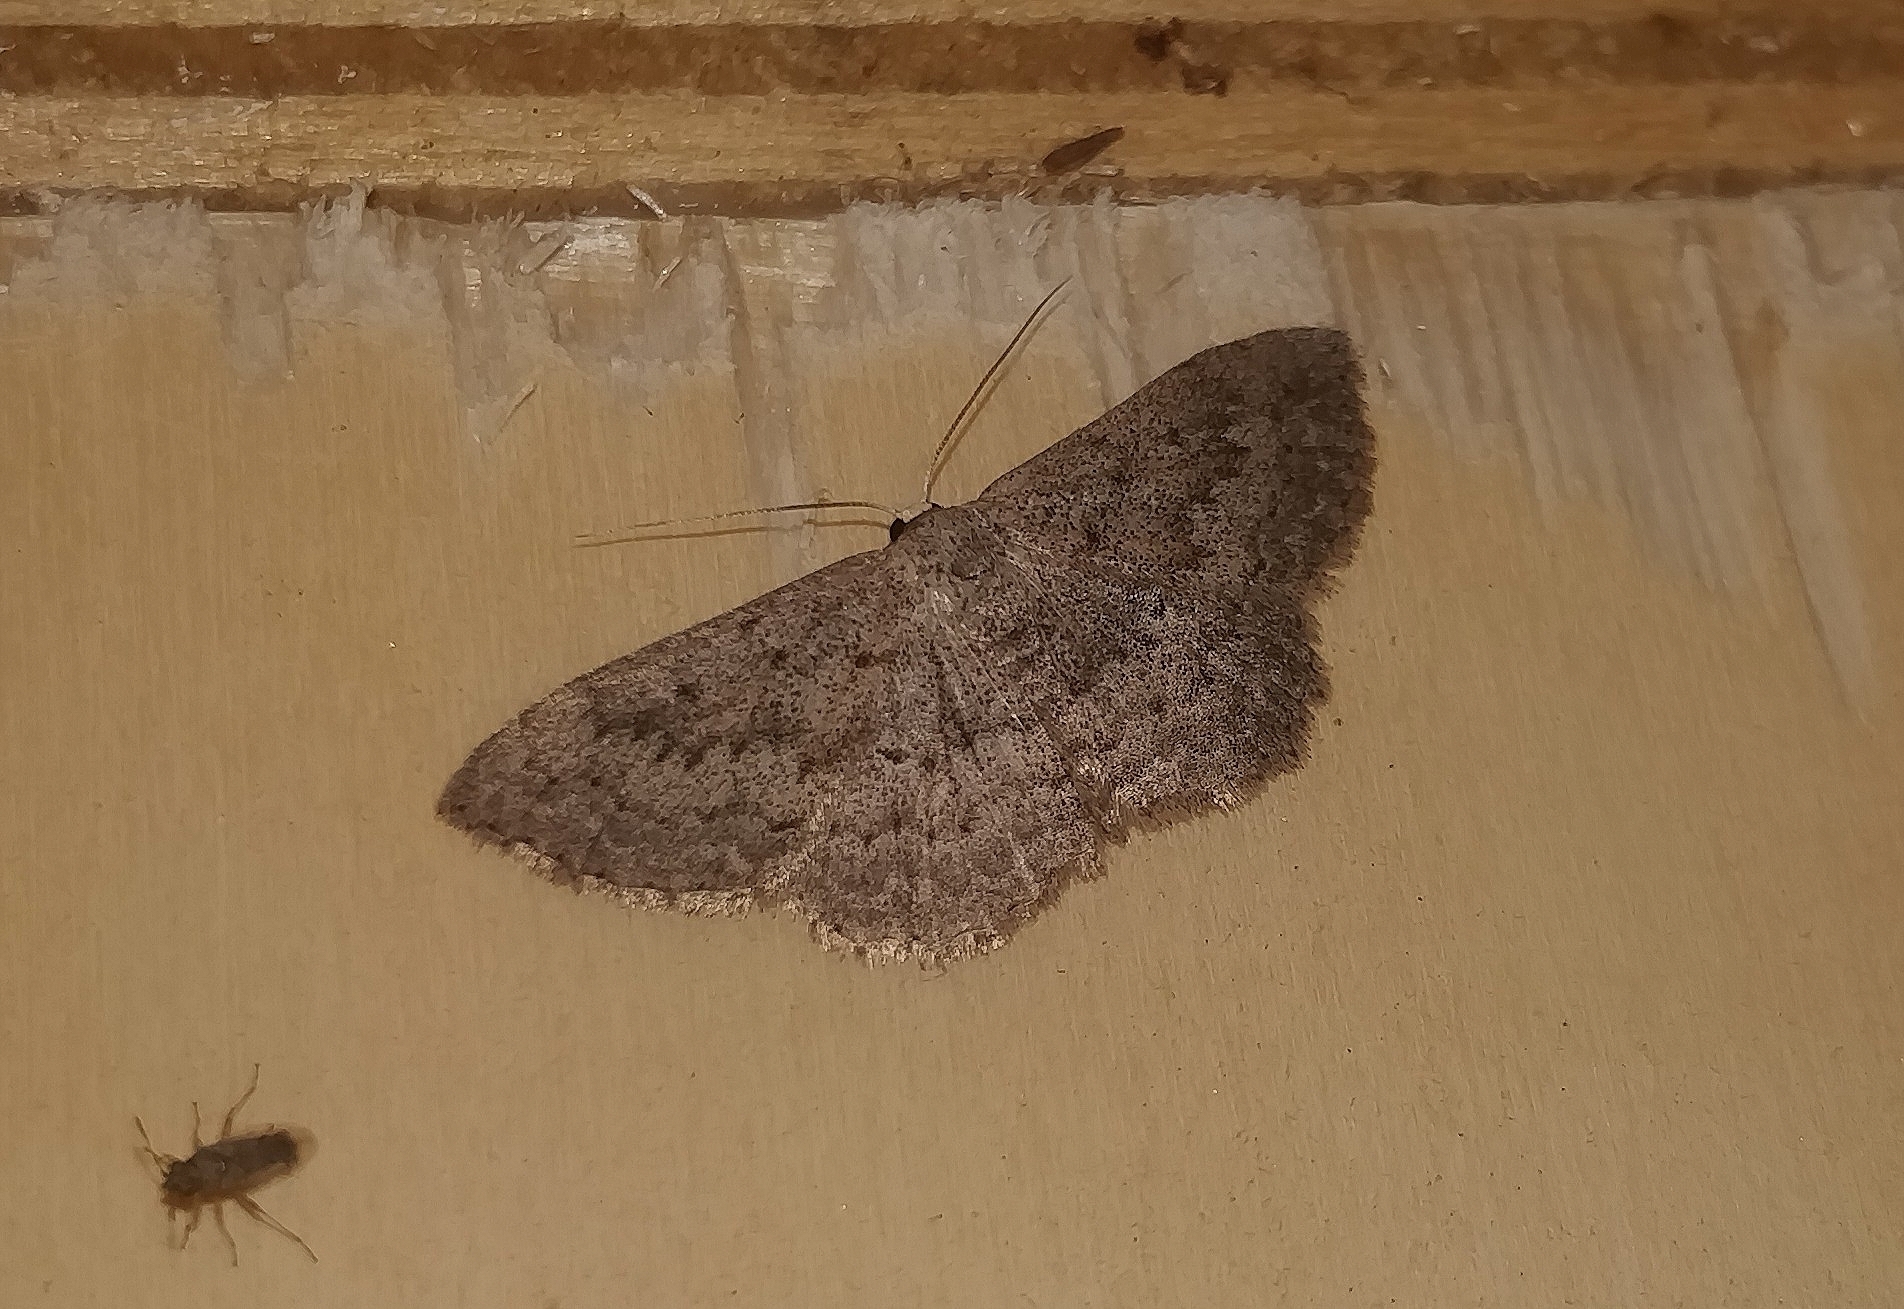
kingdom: Animalia
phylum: Arthropoda
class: Insecta
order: Lepidoptera
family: Geometridae
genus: Scopula
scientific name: Scopula guancharia
